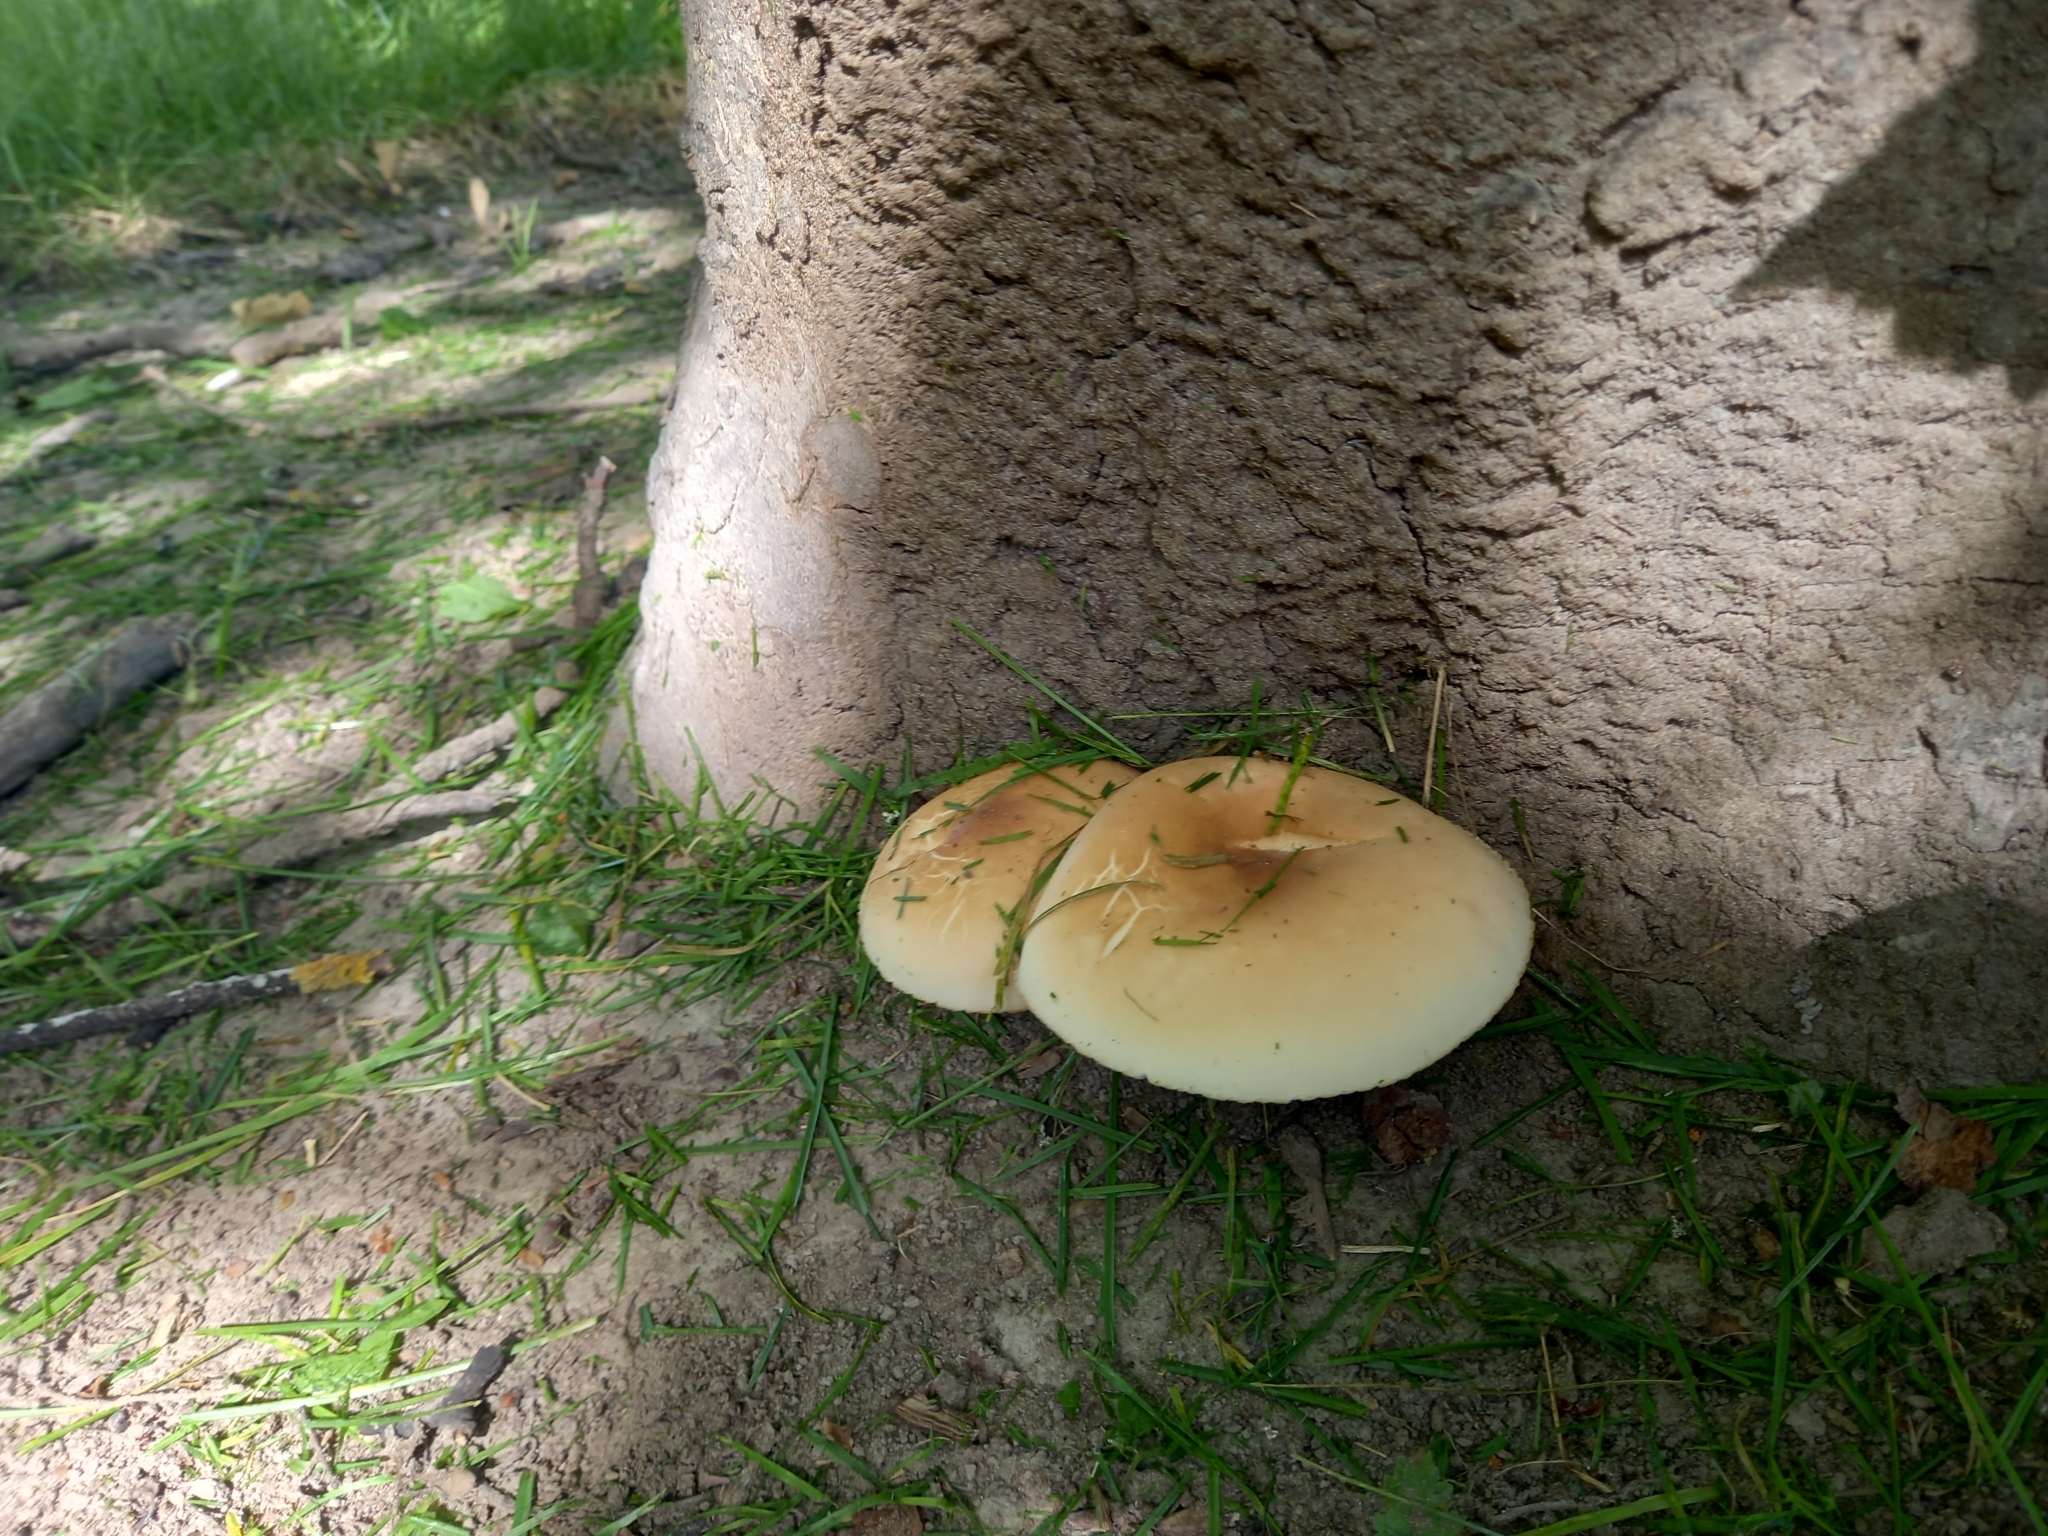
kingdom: Fungi
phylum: Basidiomycota
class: Agaricomycetes
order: Agaricales
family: Tubariaceae
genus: Cyclocybe
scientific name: Cyclocybe parasitica
